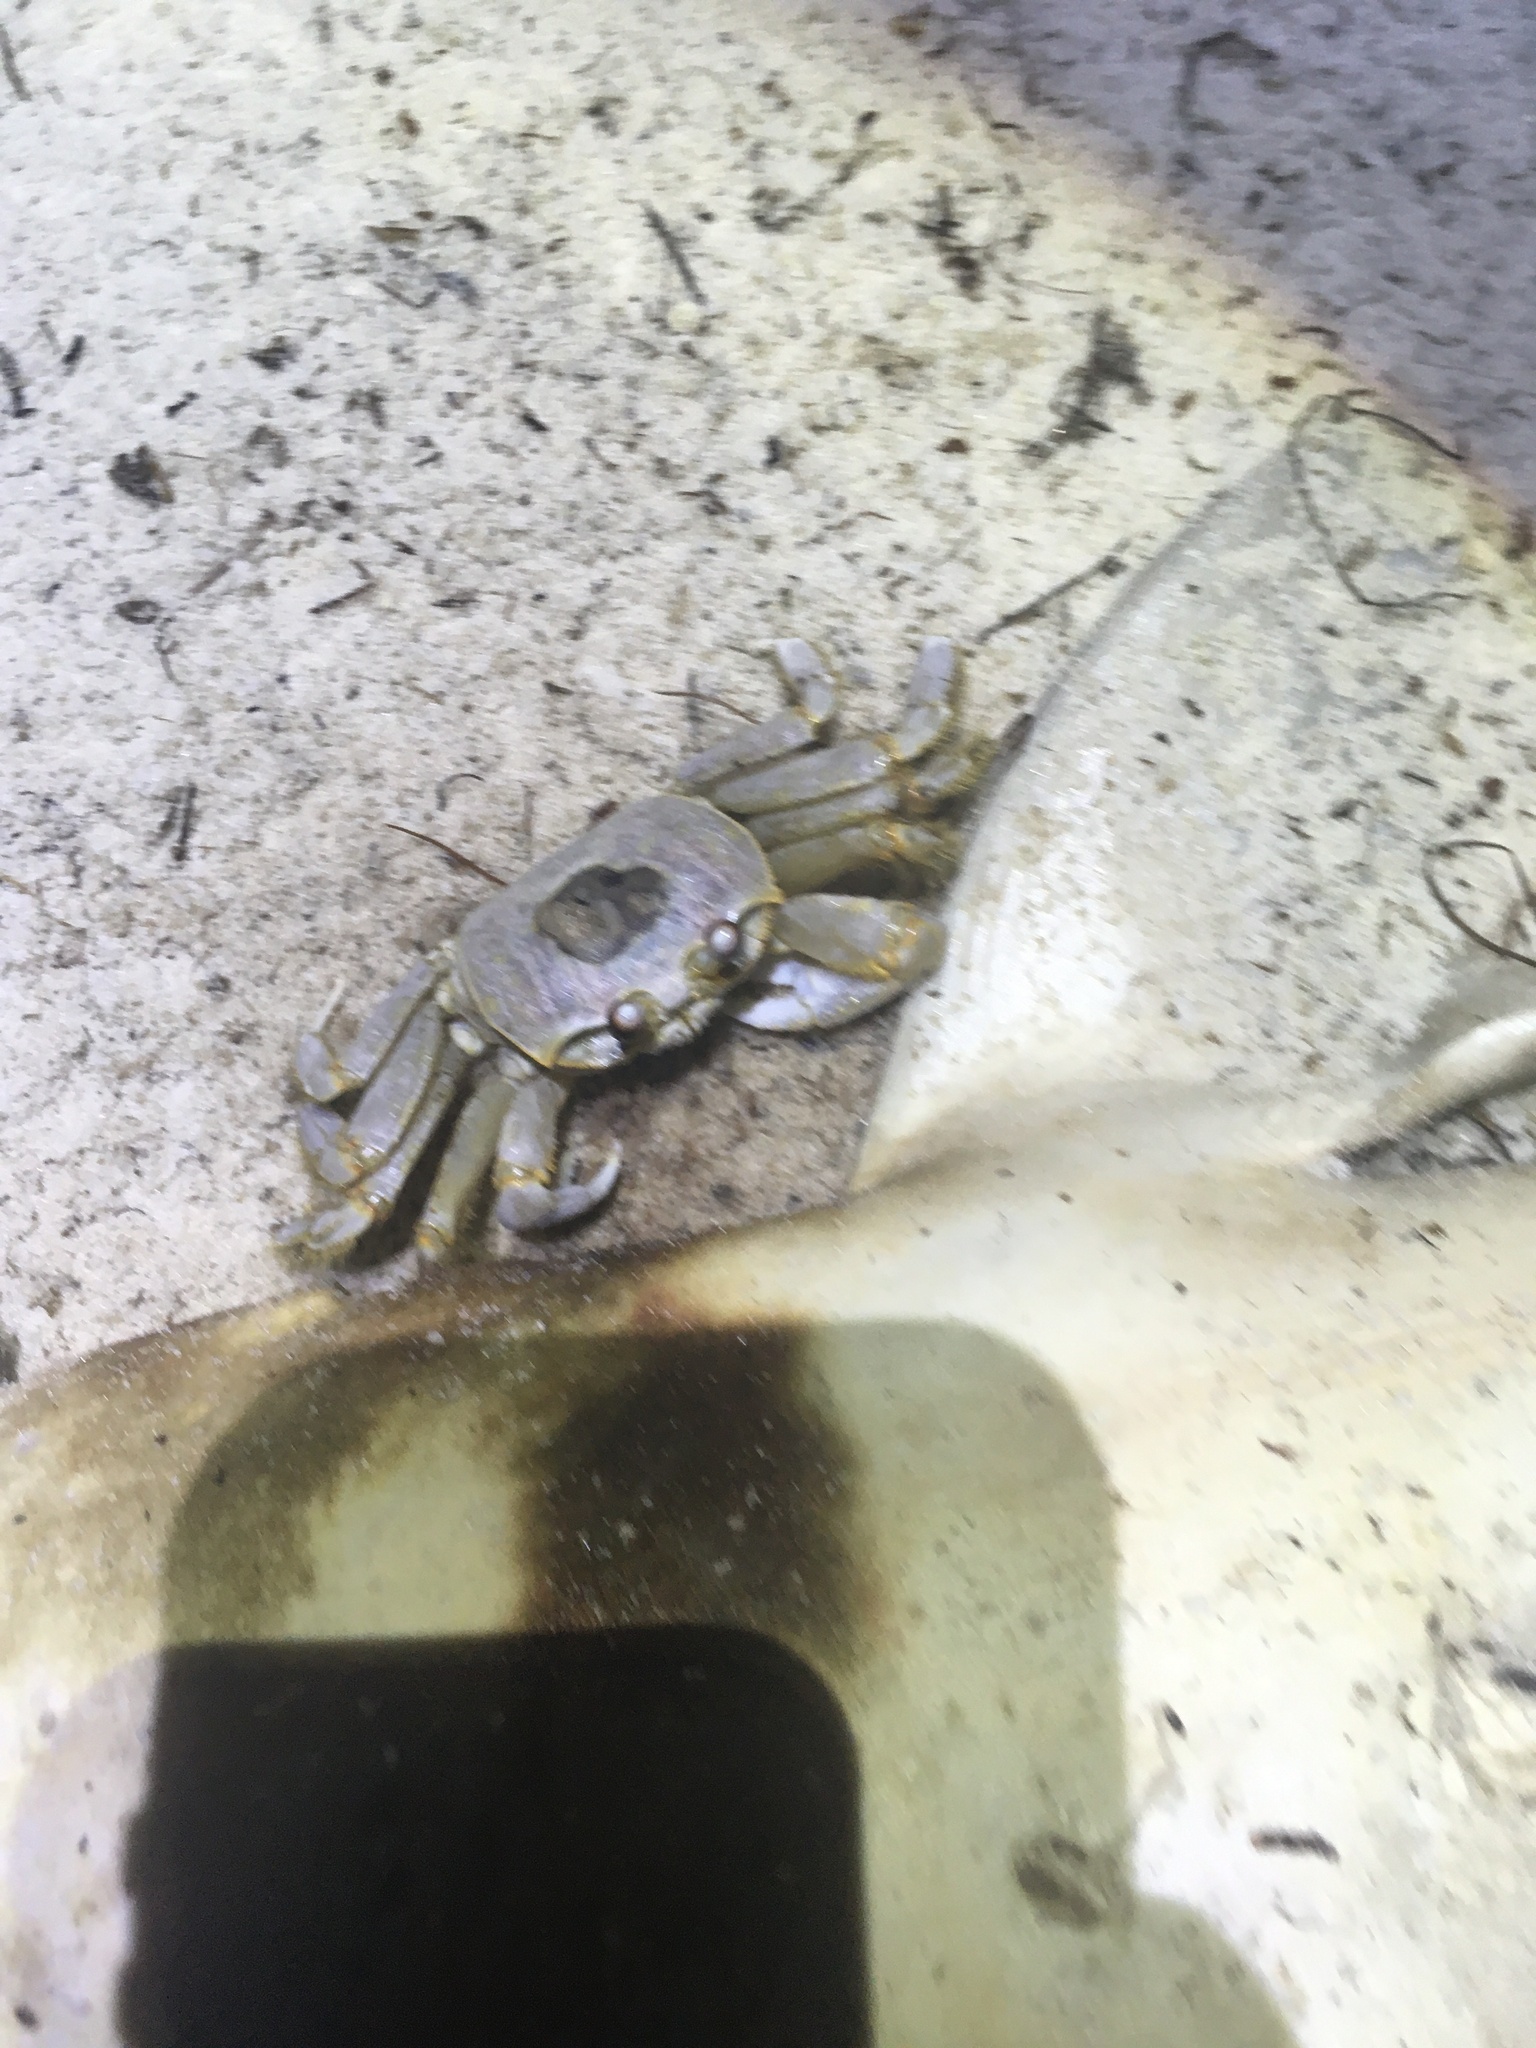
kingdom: Animalia
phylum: Arthropoda
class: Malacostraca
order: Decapoda
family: Ocypodidae
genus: Ocypode
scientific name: Ocypode quadrata
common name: Ghost crab
